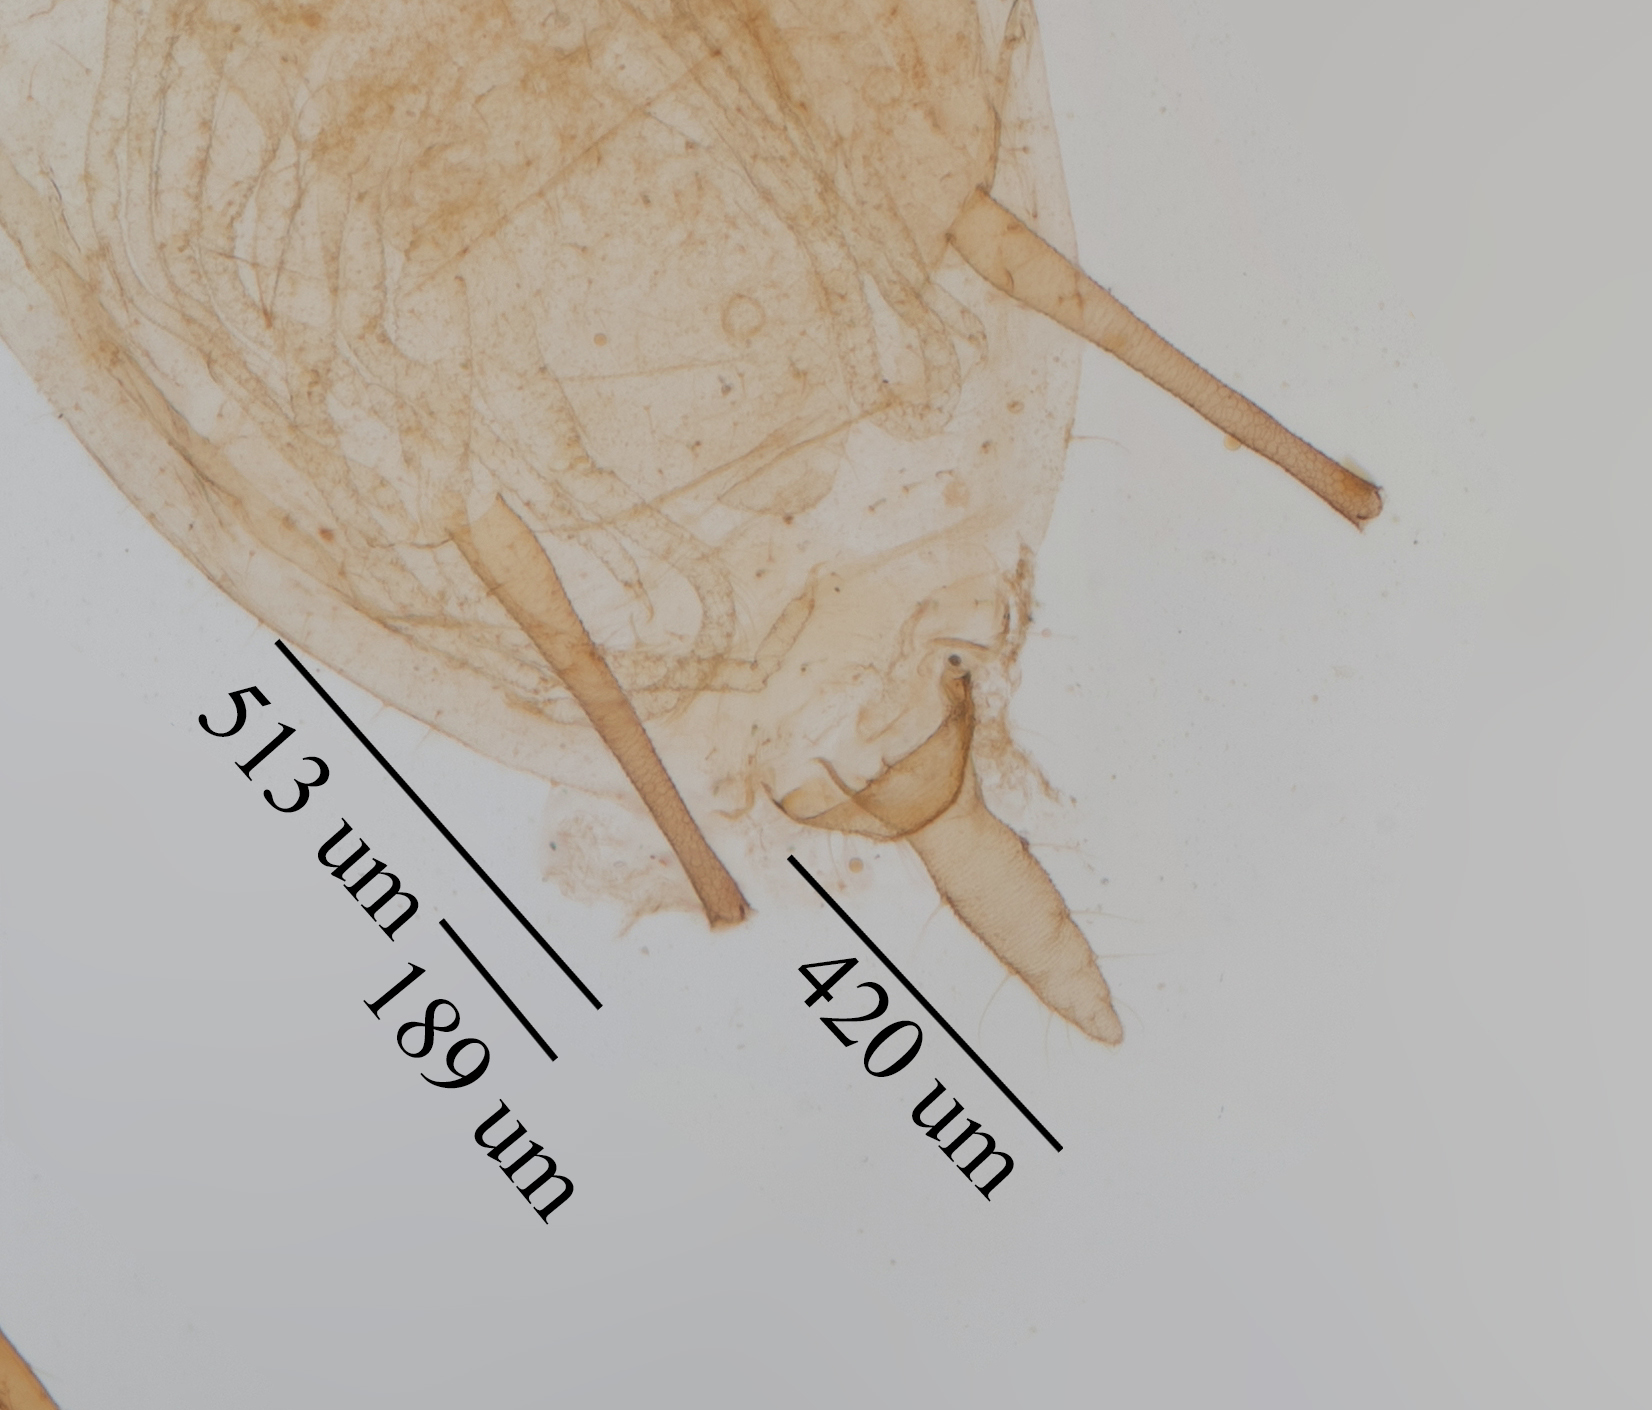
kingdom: Animalia
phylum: Arthropoda
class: Insecta
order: Hemiptera
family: Aphididae
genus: Macrosiphoniella
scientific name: Macrosiphoniella ludovicianae
